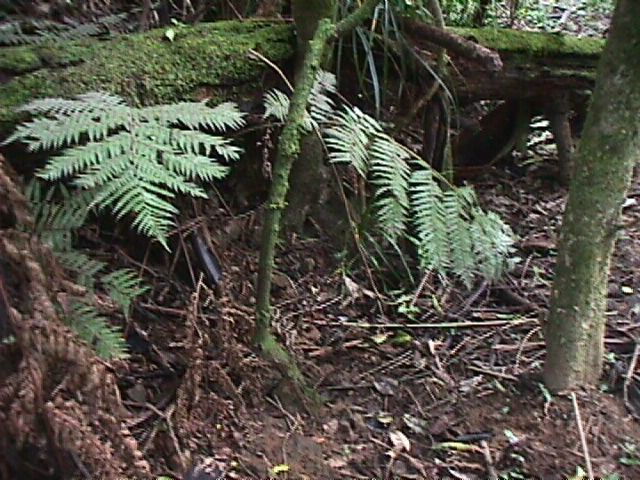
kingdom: Plantae
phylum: Tracheophyta
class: Polypodiopsida
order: Cyatheales
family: Cyatheaceae
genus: Alsophila
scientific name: Alsophila dealbata
